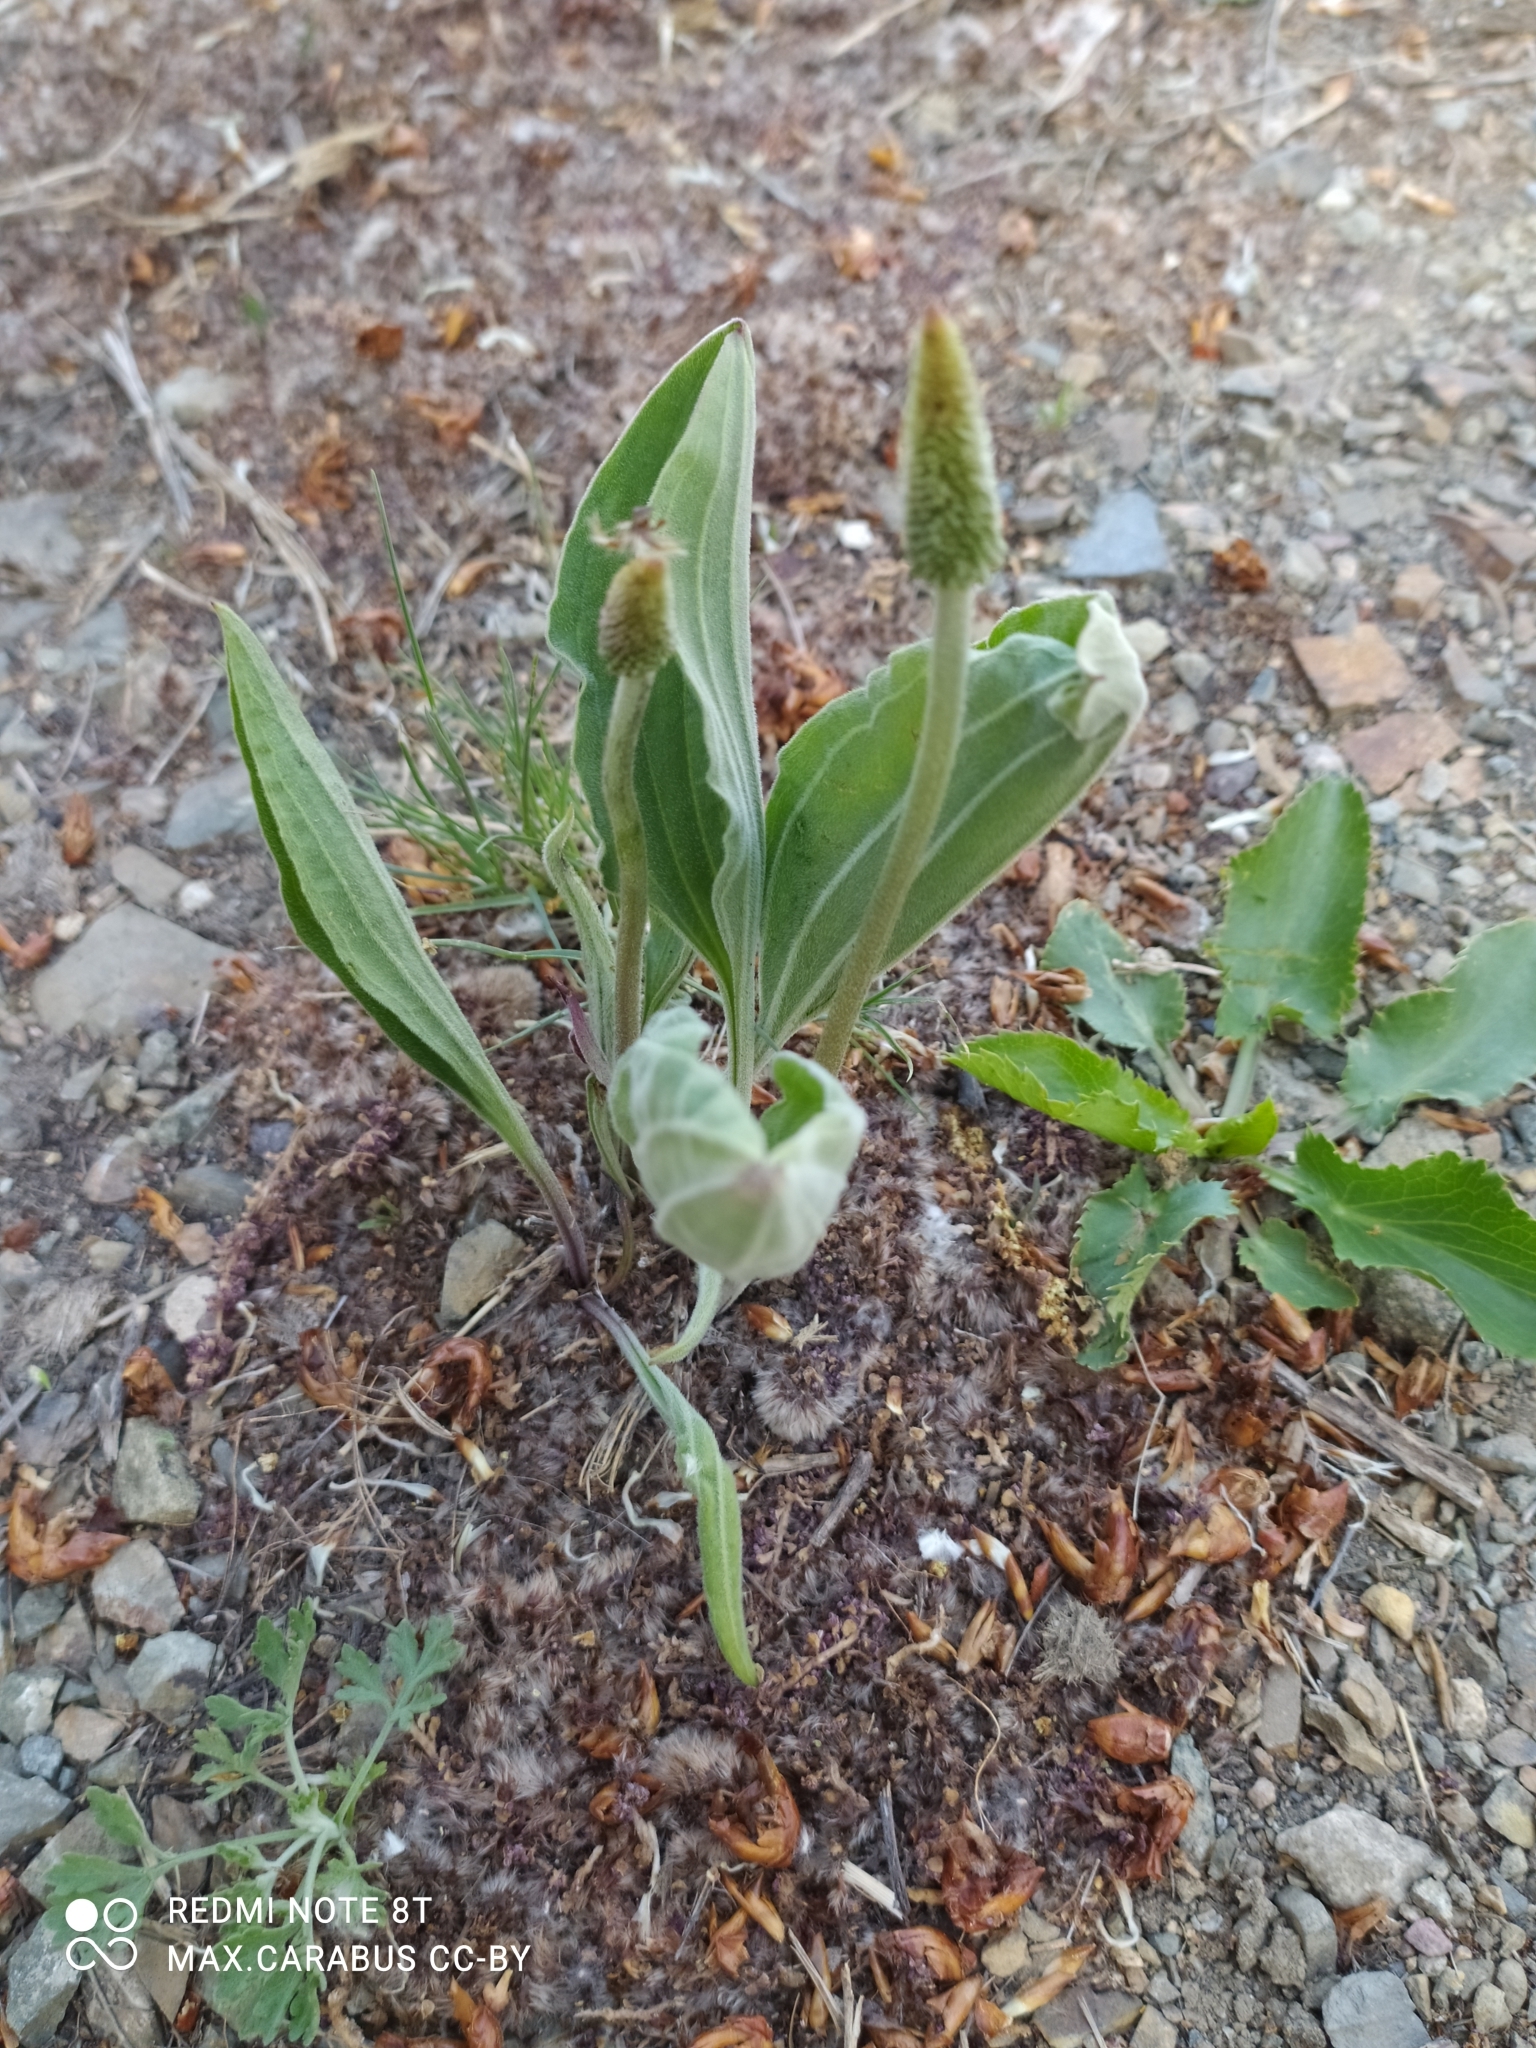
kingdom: Plantae
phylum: Tracheophyta
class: Magnoliopsida
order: Lamiales
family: Plantaginaceae
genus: Plantago
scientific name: Plantago media
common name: Hoary plantain
